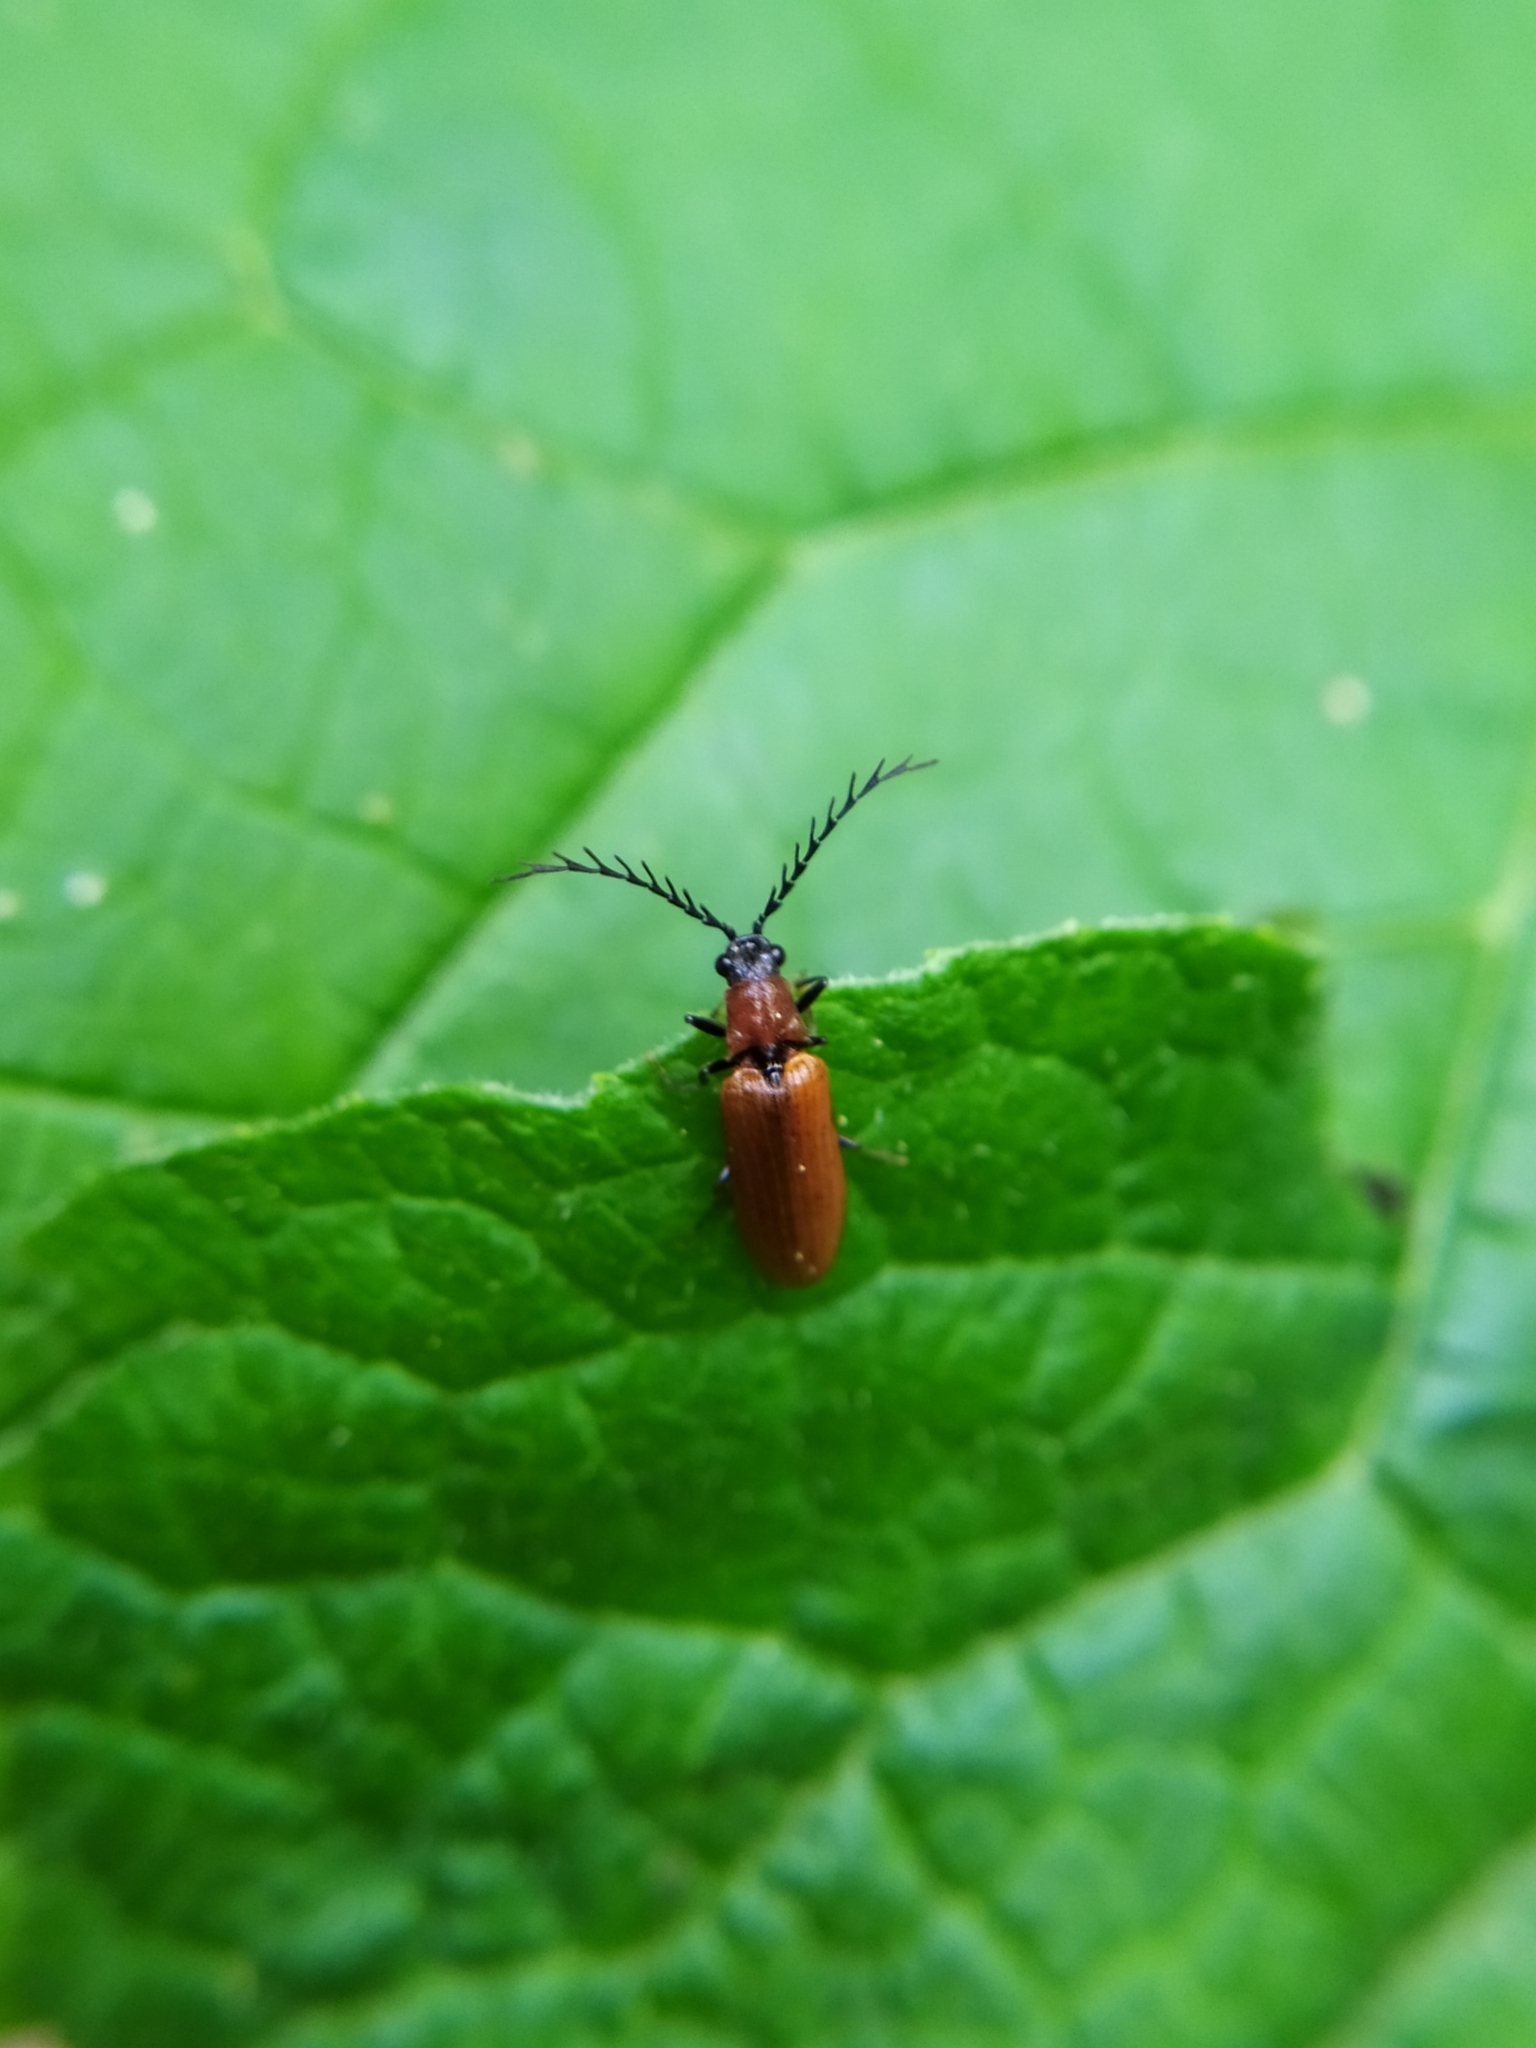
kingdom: Animalia
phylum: Arthropoda
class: Insecta
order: Coleoptera
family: Elateridae
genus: Denticollis
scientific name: Denticollis rubens
